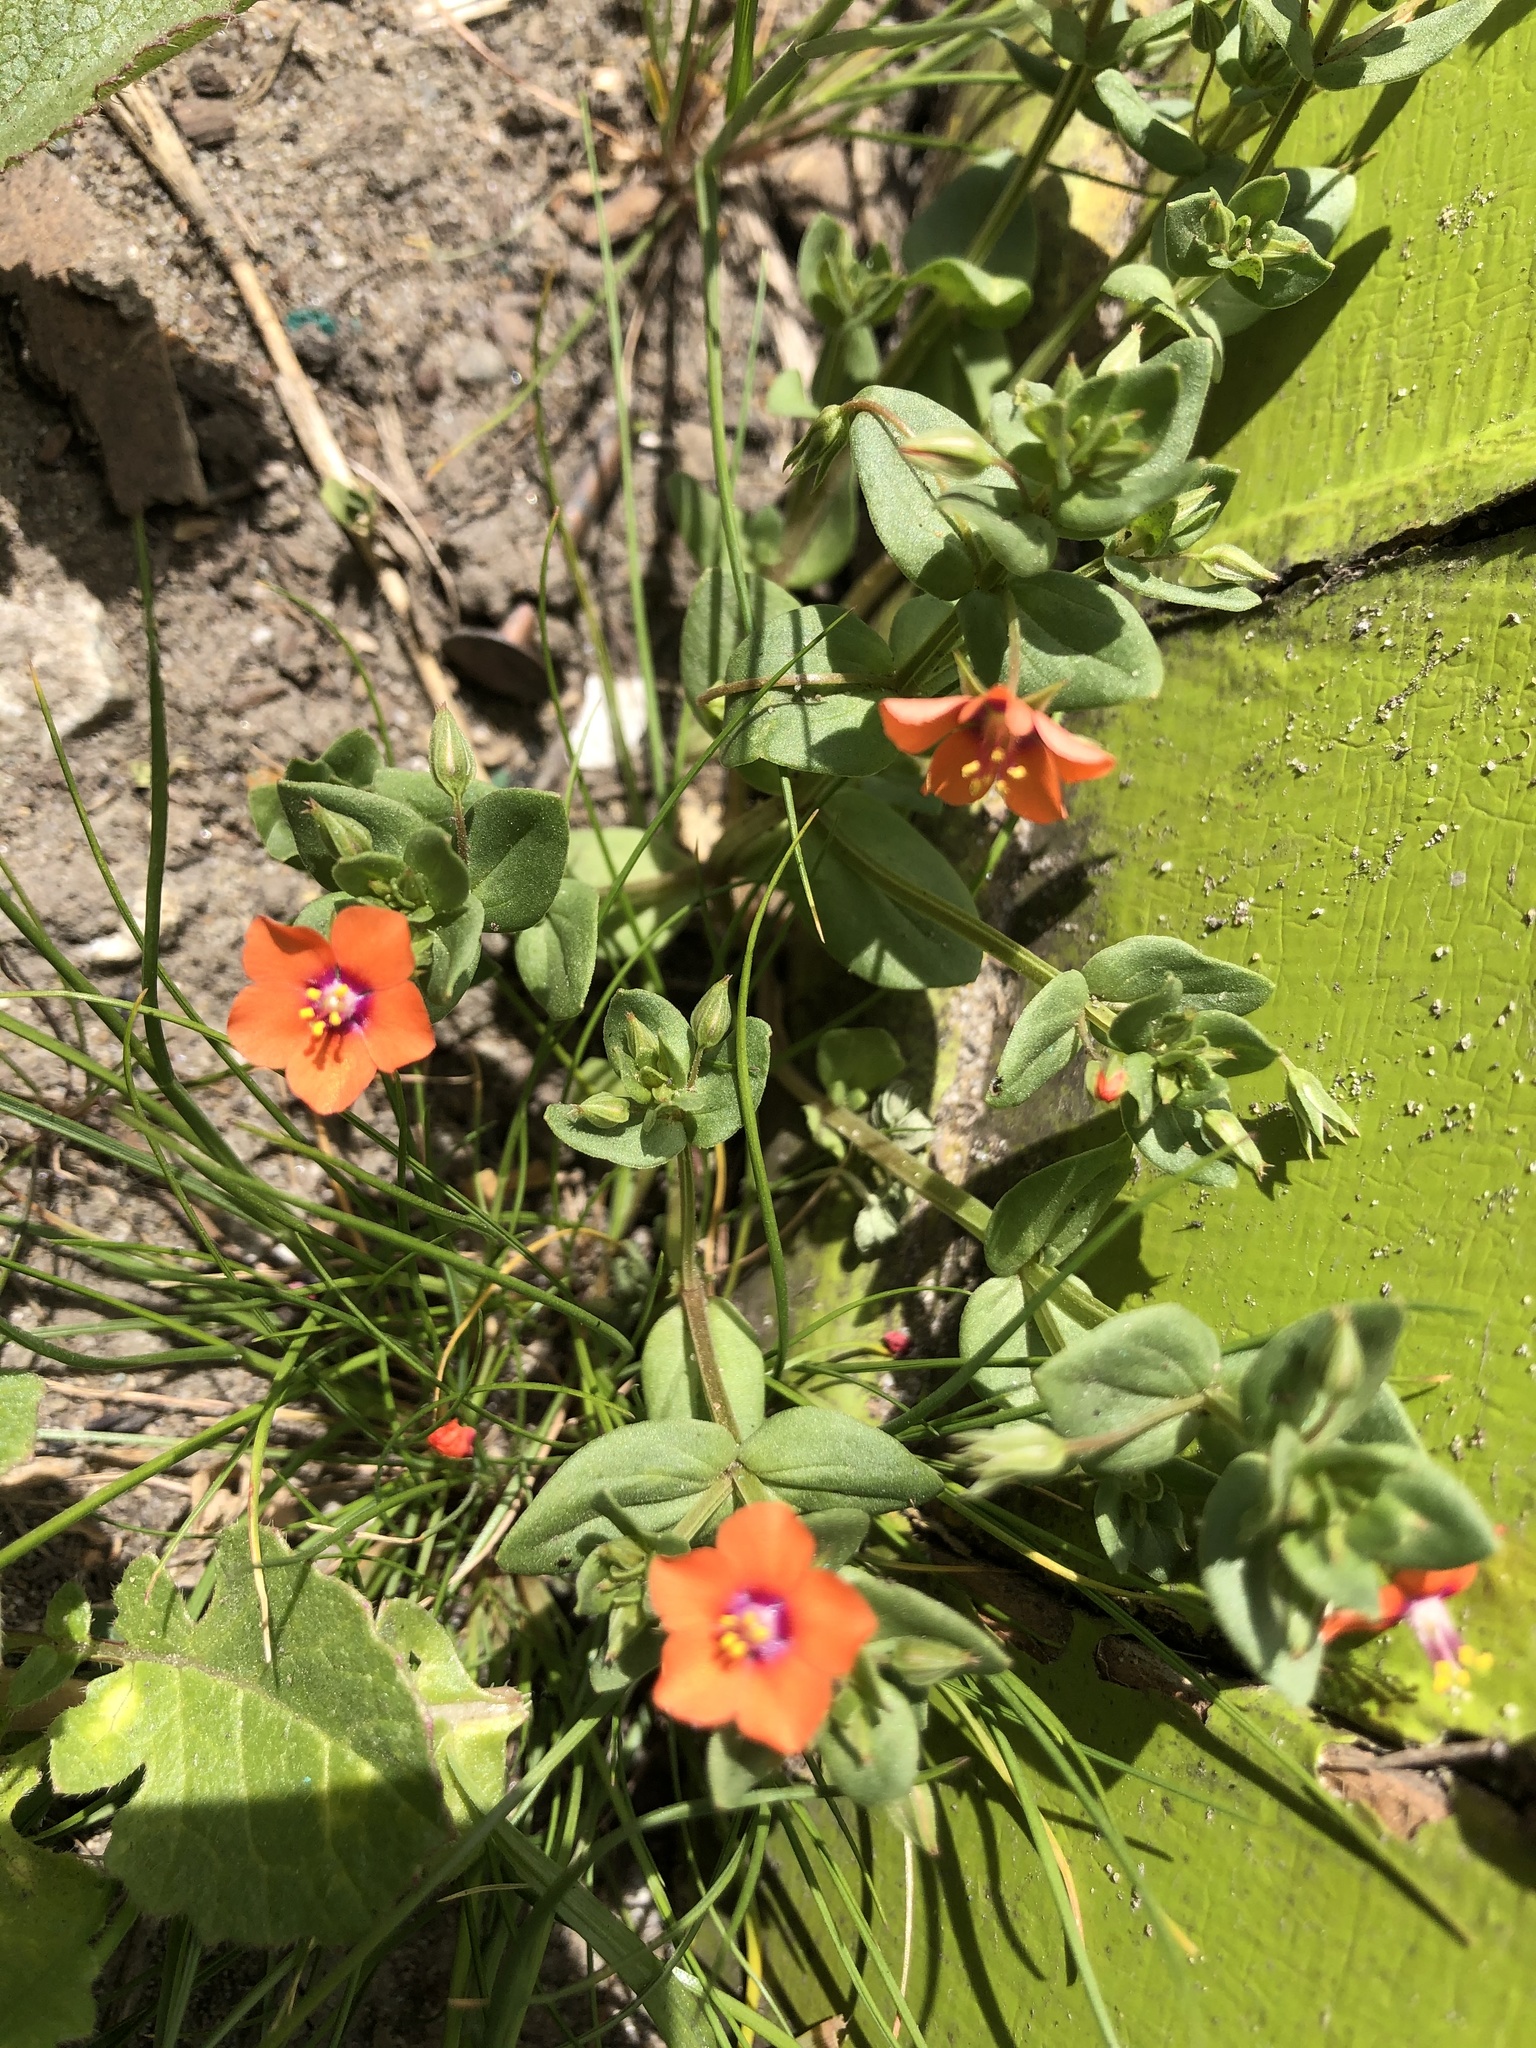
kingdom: Plantae
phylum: Tracheophyta
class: Magnoliopsida
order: Ericales
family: Primulaceae
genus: Lysimachia
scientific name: Lysimachia arvensis
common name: Scarlet pimpernel
